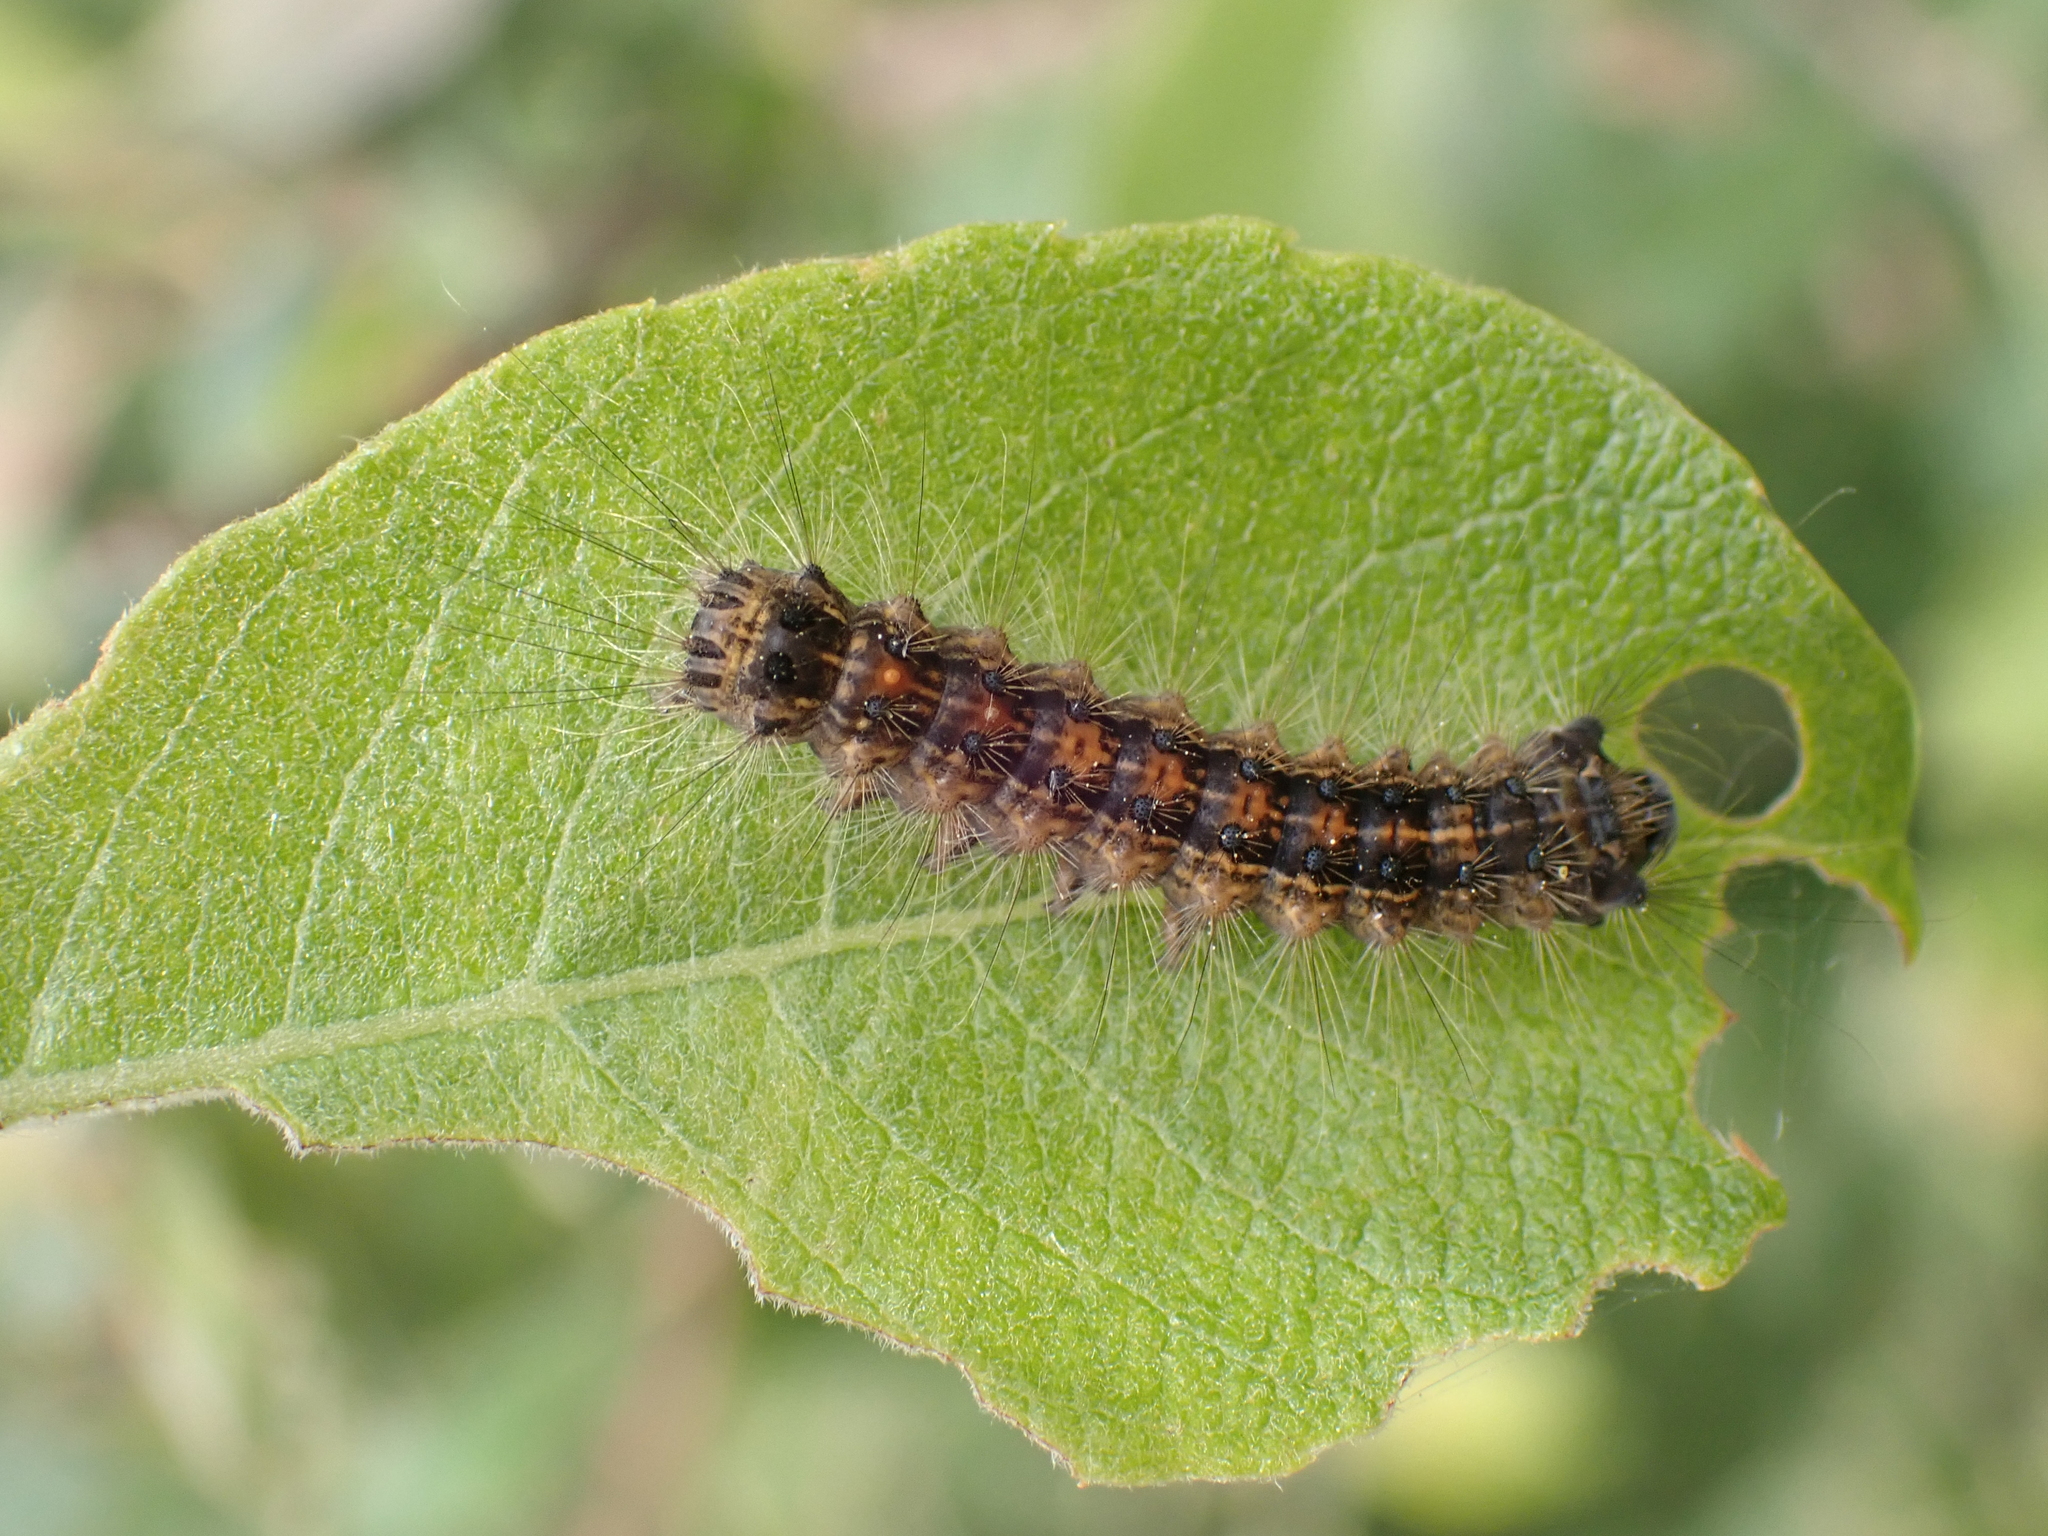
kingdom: Animalia
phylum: Arthropoda
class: Insecta
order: Lepidoptera
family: Erebidae
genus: Lymantria
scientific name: Lymantria dispar
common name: Gypsy moth
